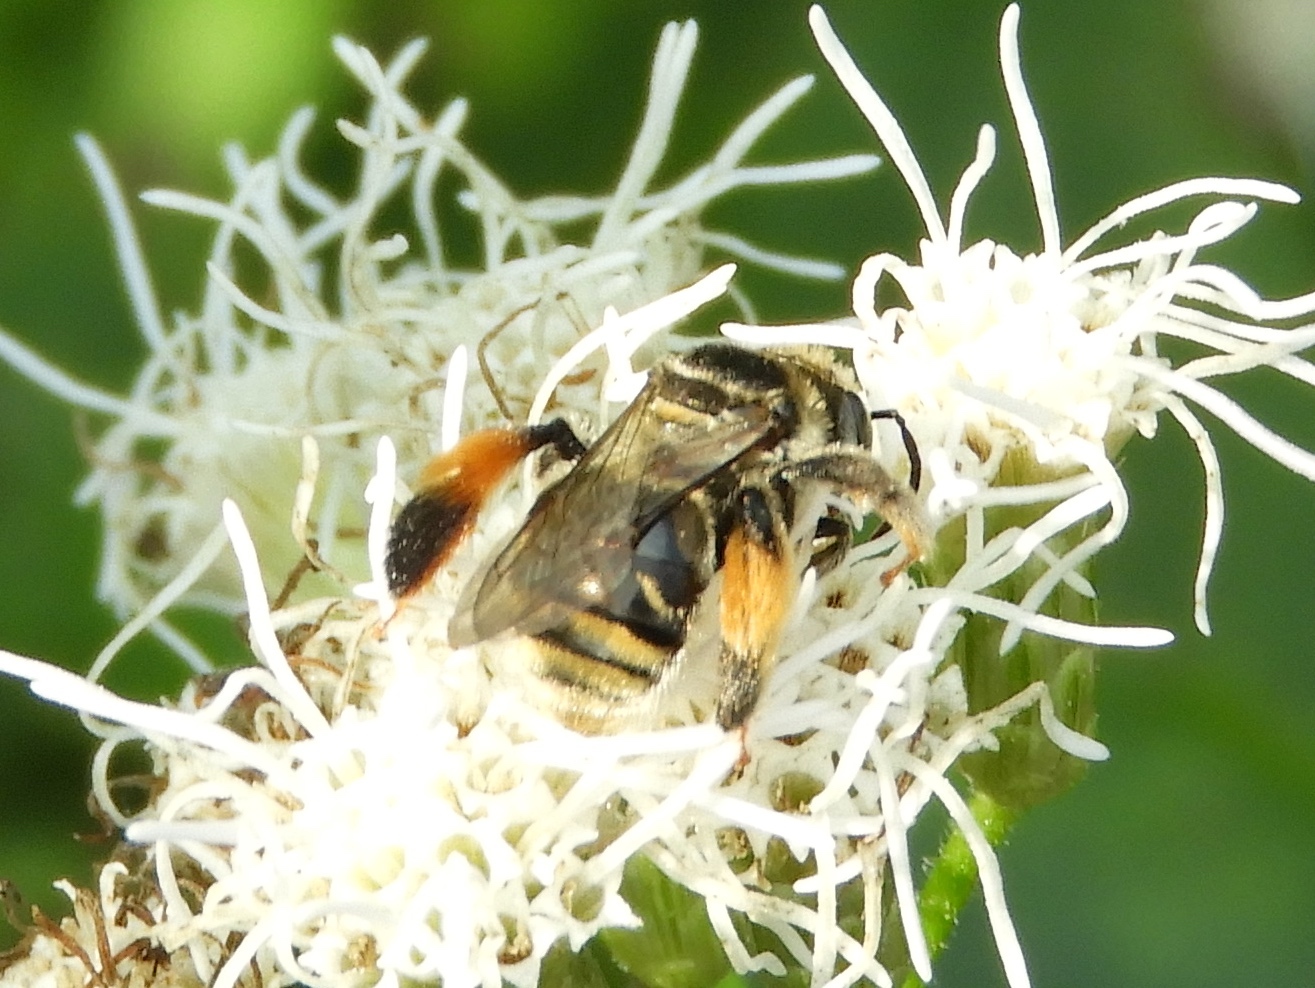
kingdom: Animalia
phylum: Arthropoda
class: Insecta
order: Hymenoptera
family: Apidae
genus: Exomalopsis
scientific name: Exomalopsis
